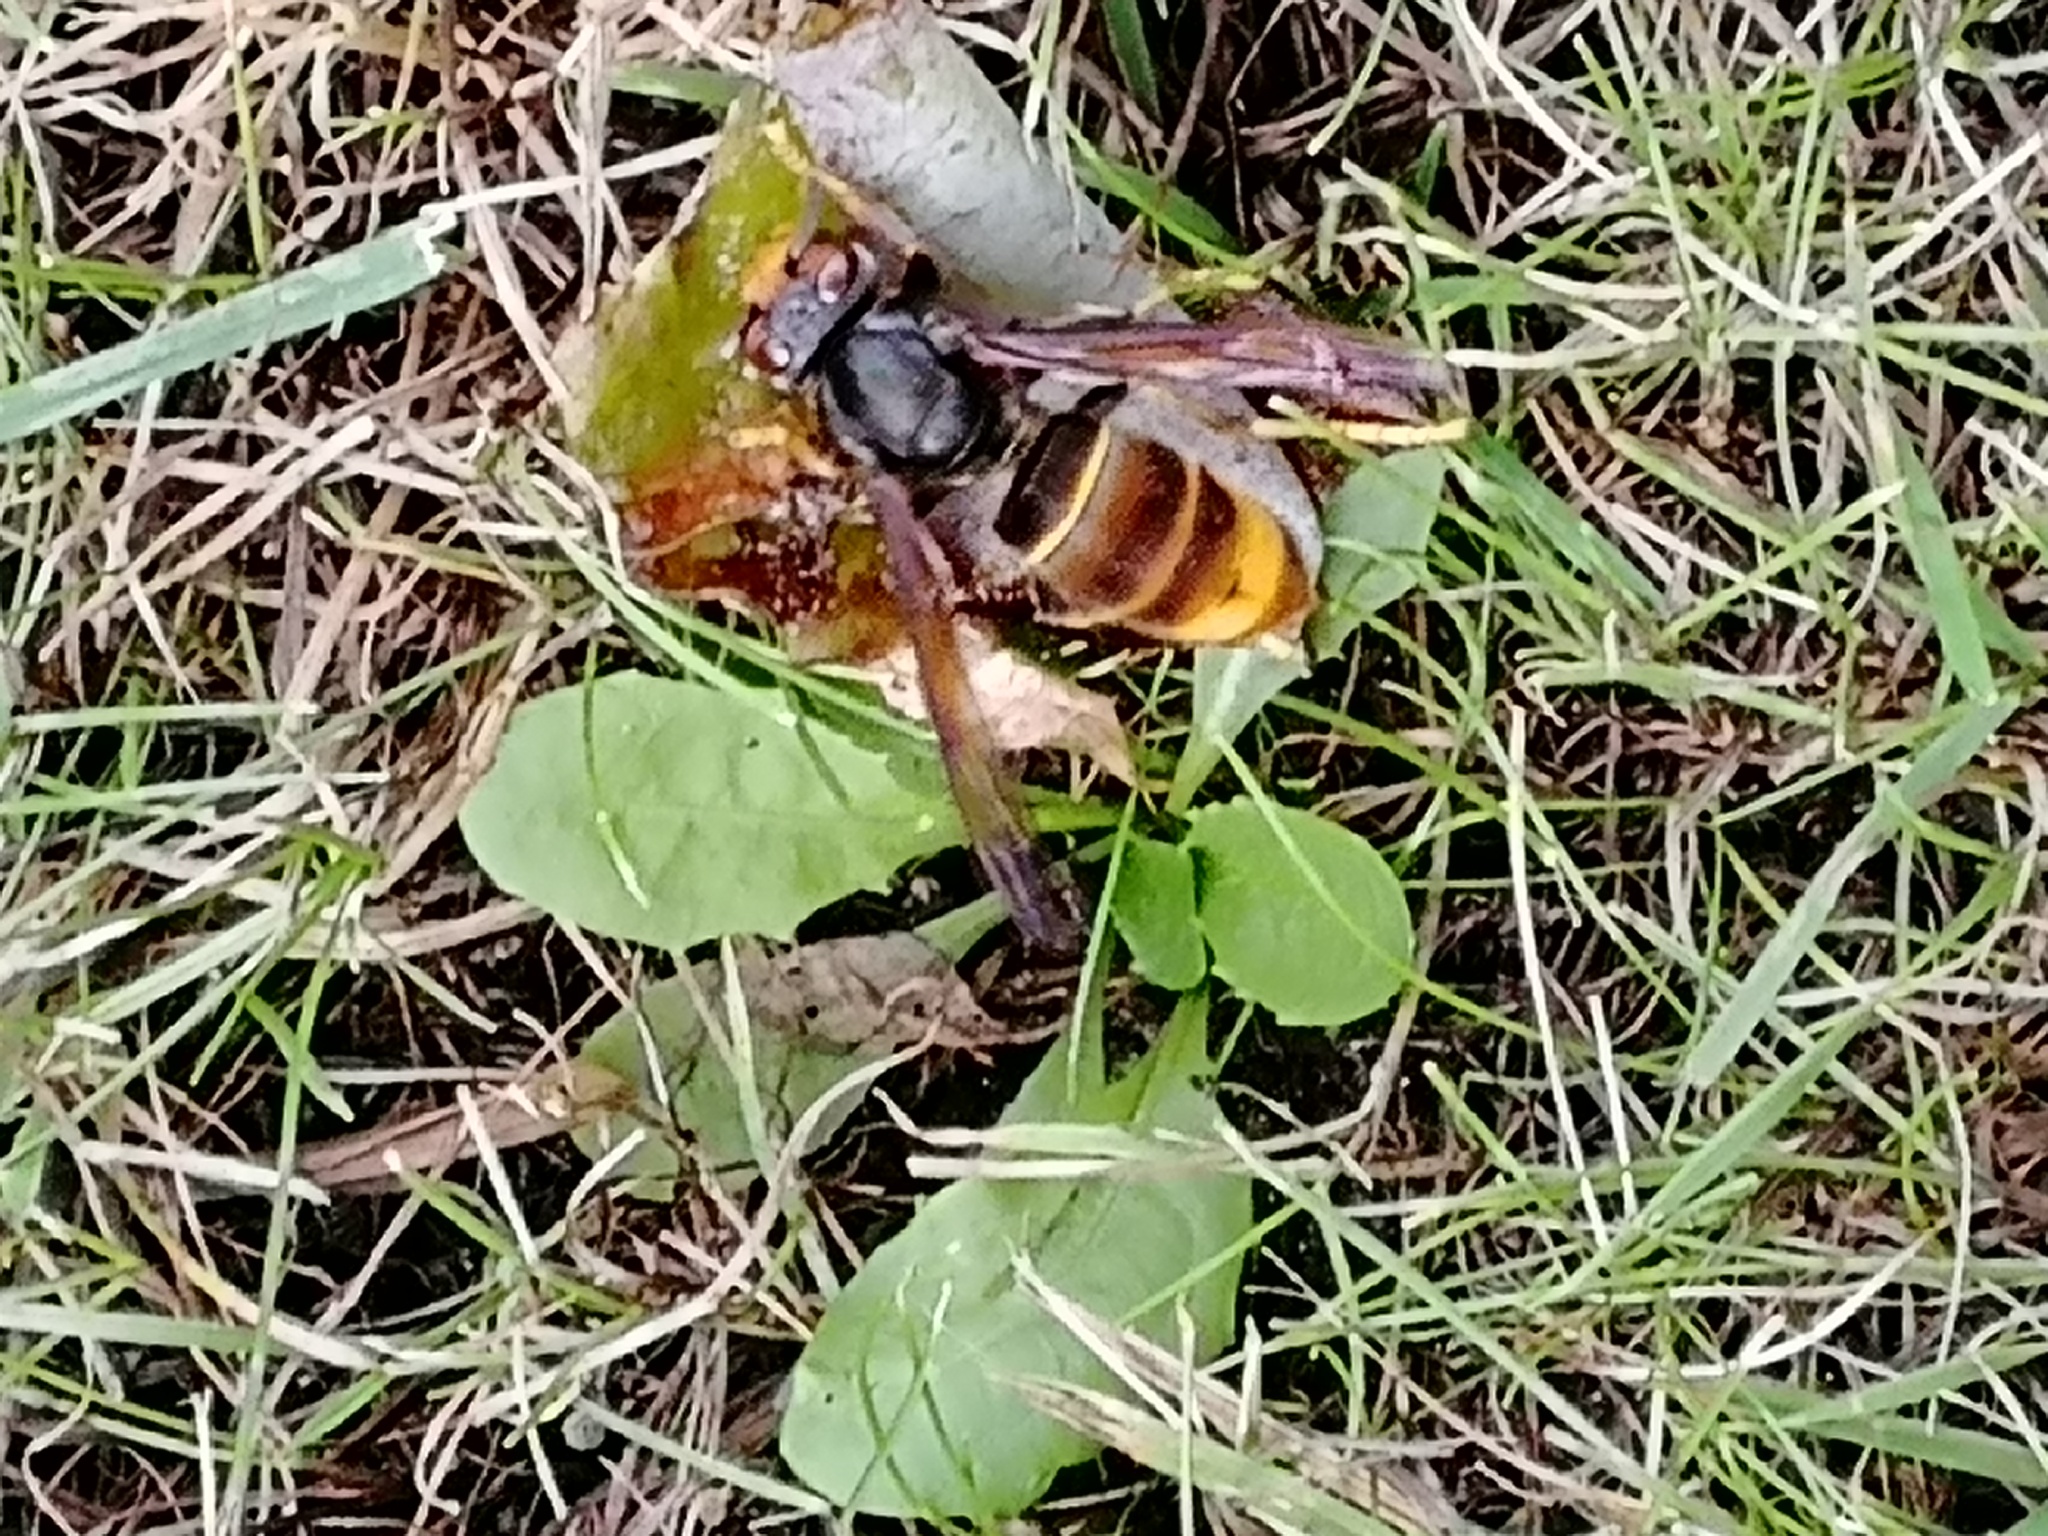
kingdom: Animalia
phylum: Arthropoda
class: Insecta
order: Hymenoptera
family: Vespidae
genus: Vespa
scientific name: Vespa velutina
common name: Asian hornet
